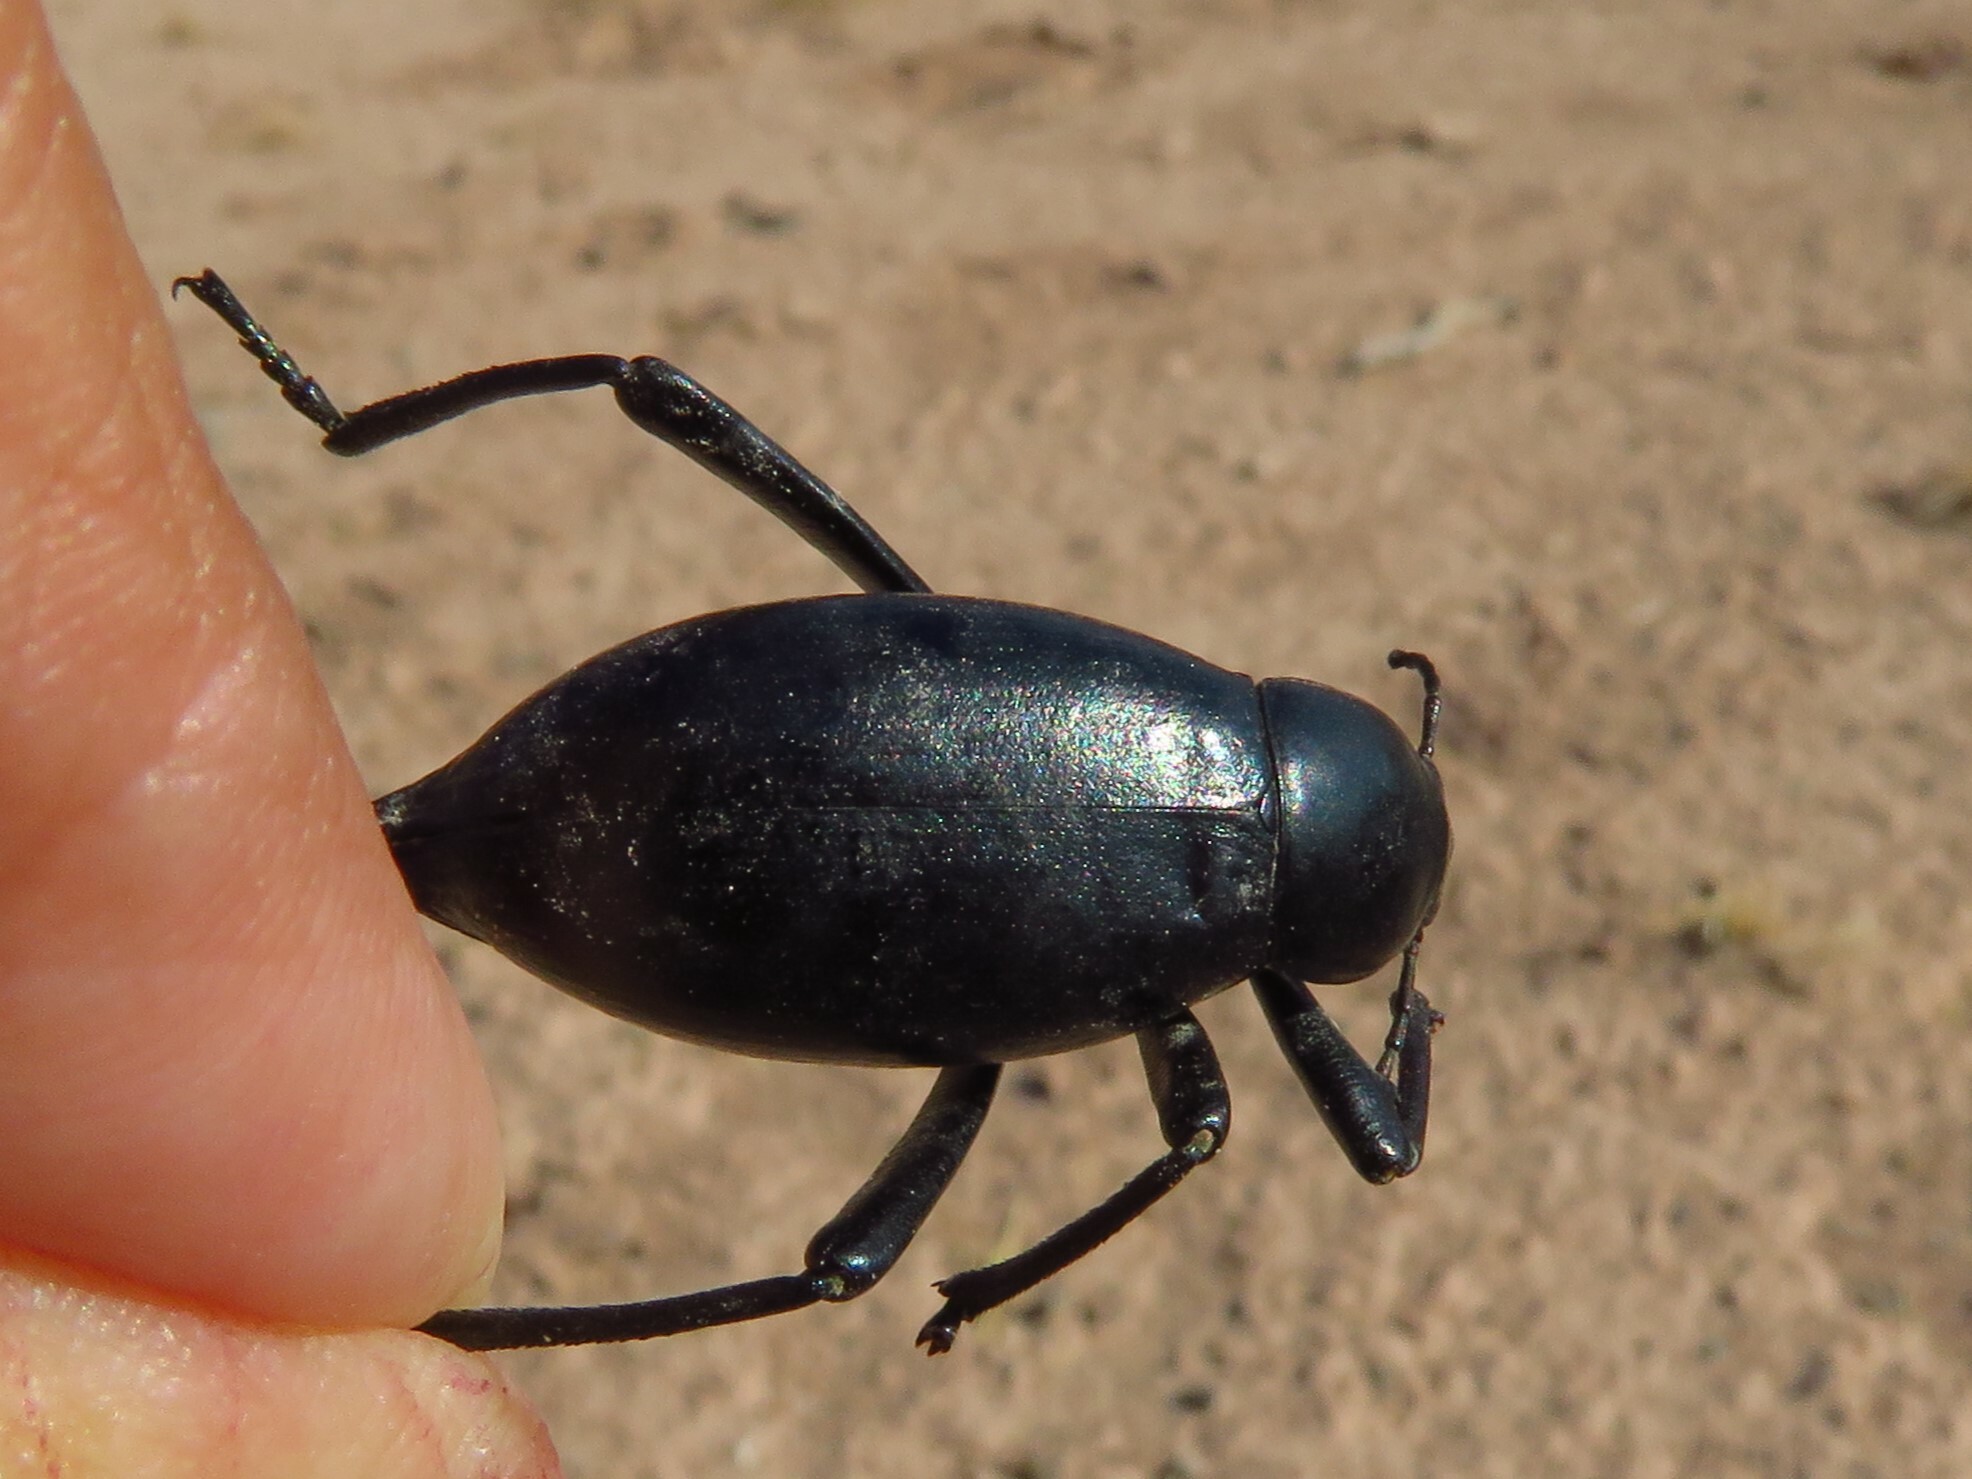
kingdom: Animalia
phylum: Arthropoda
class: Insecta
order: Coleoptera
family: Tenebrionidae
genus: Eleodes
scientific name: Eleodes spinipes
